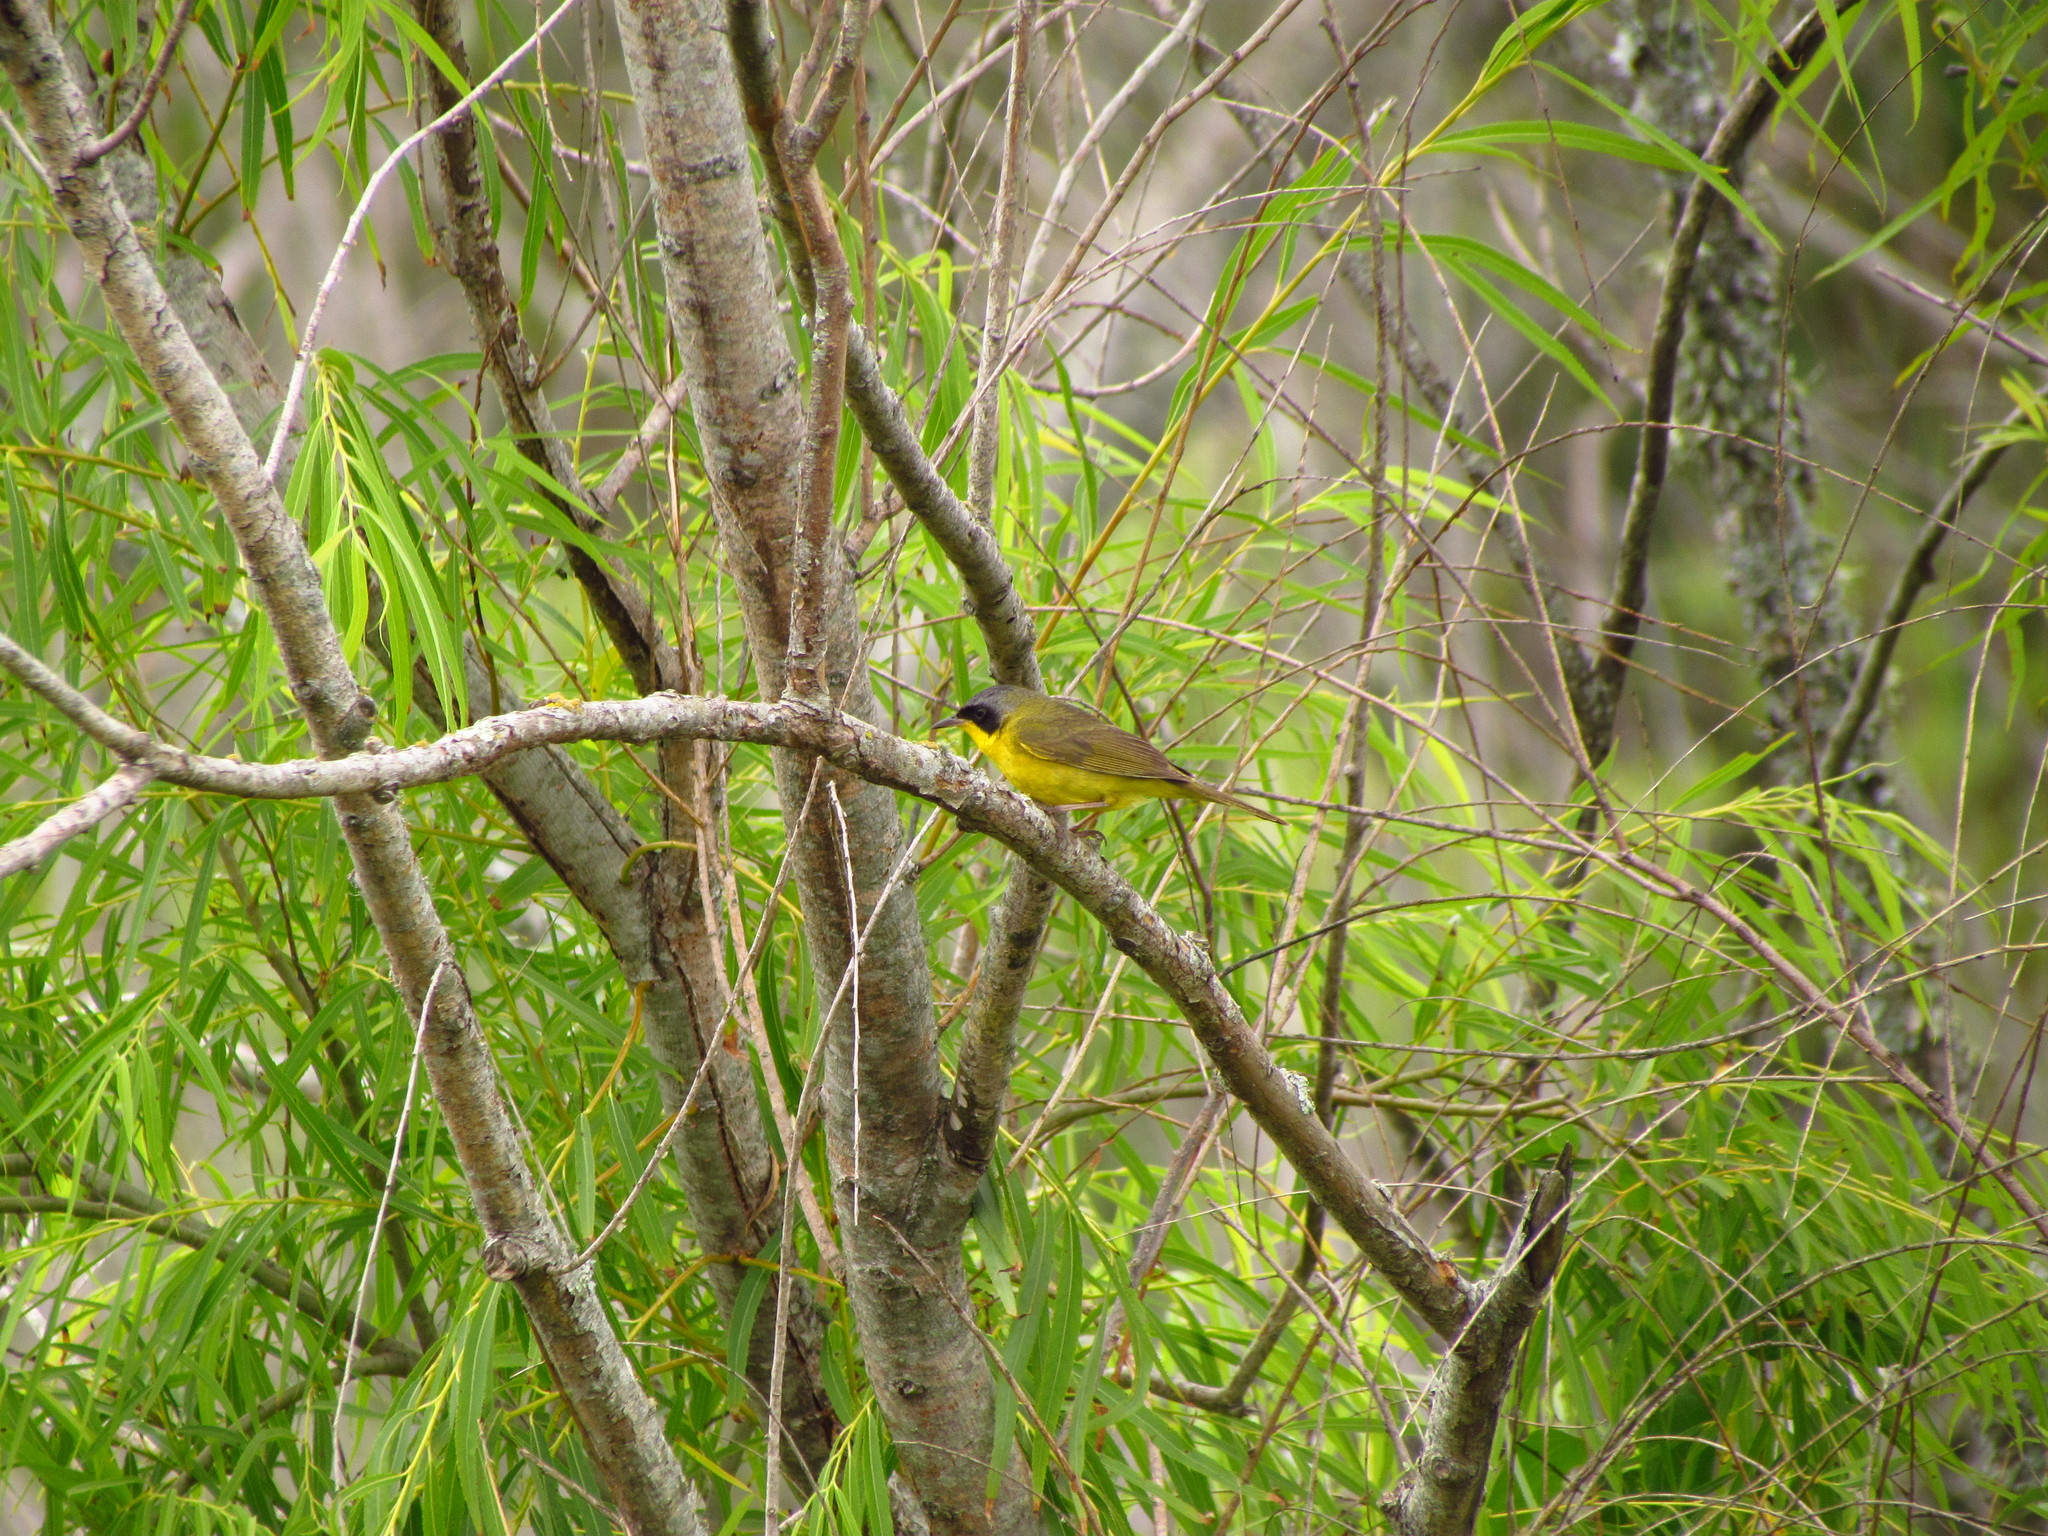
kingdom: Animalia
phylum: Chordata
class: Aves
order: Passeriformes
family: Parulidae
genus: Geothlypis
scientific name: Geothlypis velata
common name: Southern yellowthroat
